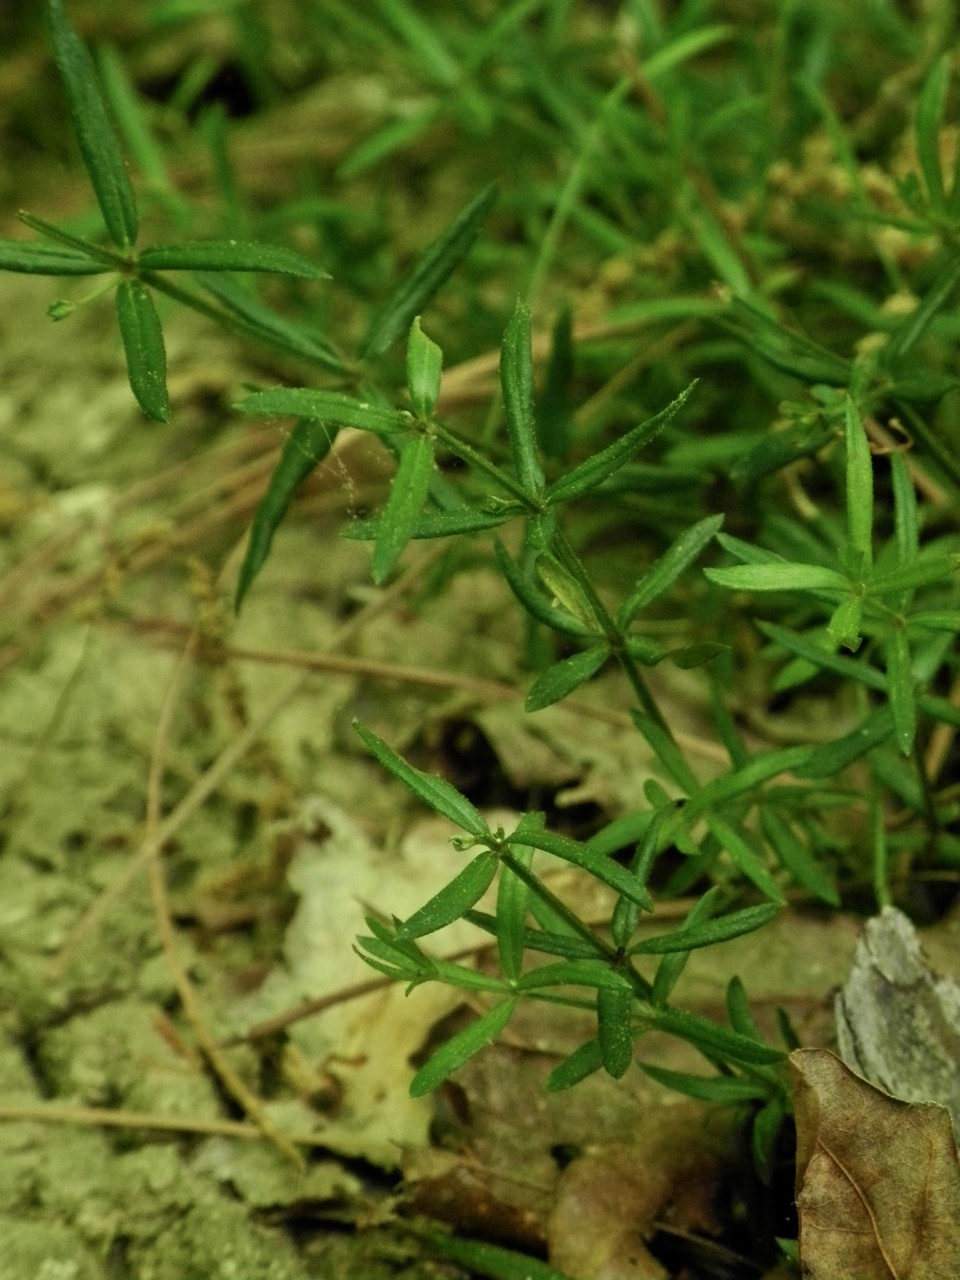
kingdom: Plantae
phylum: Tracheophyta
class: Magnoliopsida
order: Gentianales
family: Rubiaceae
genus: Galium
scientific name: Galium uniflorum
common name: One-flower bedstraw
